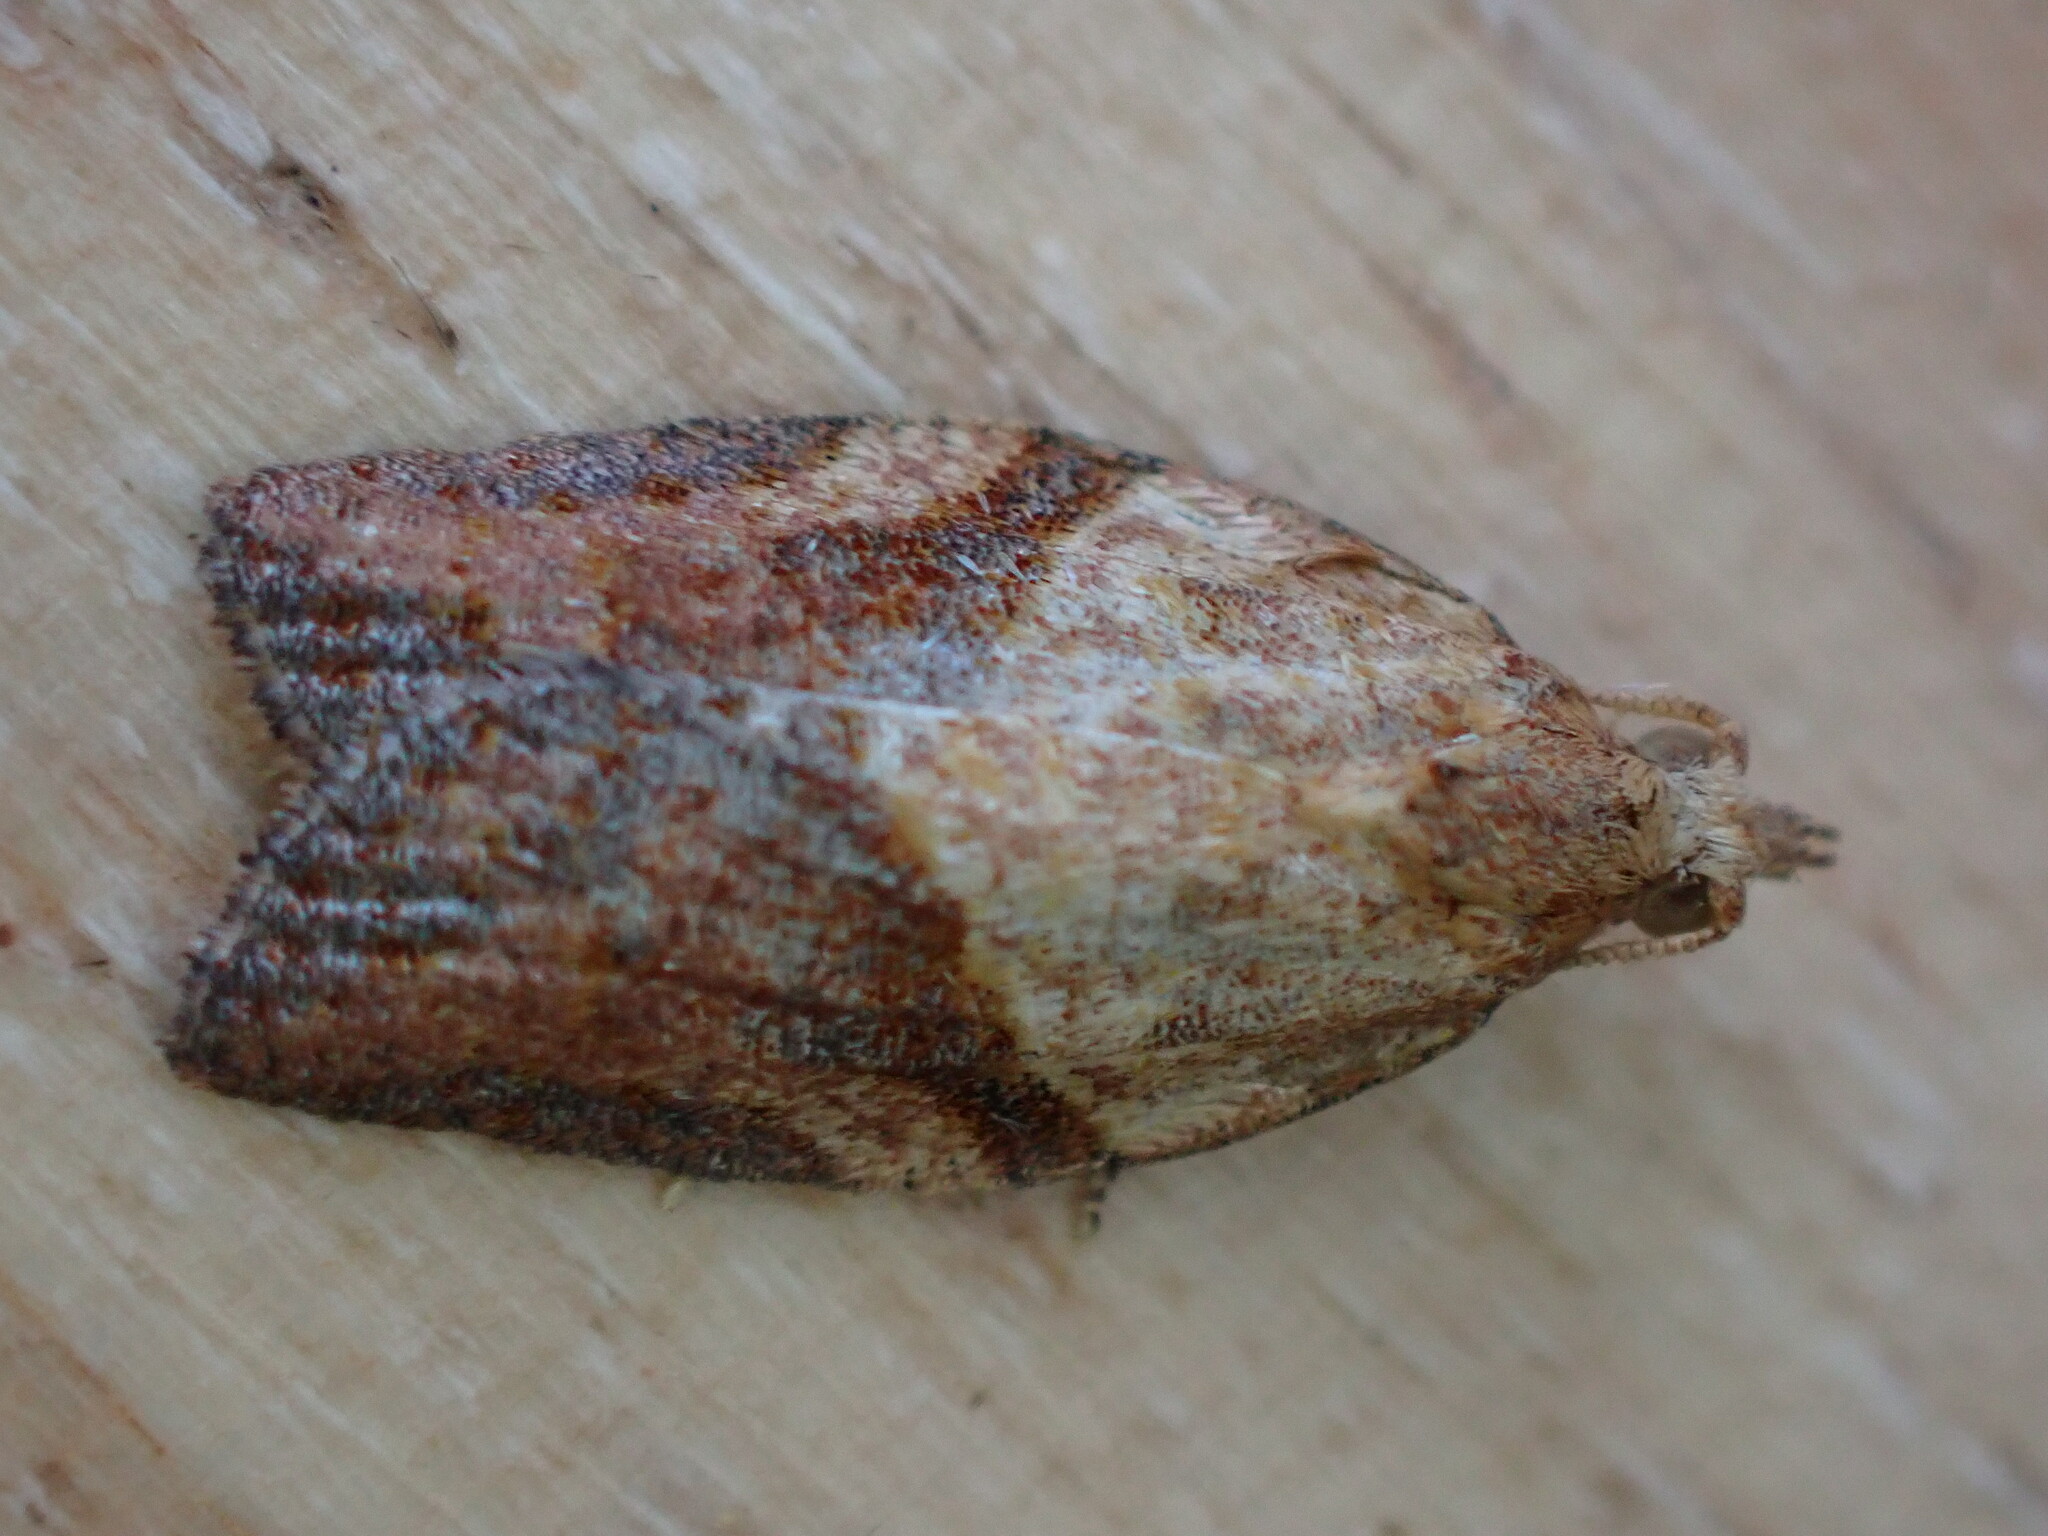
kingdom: Animalia
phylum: Arthropoda
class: Insecta
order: Lepidoptera
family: Tortricidae
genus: Epiphyas
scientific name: Epiphyas postvittana
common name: Light brown apple moth
